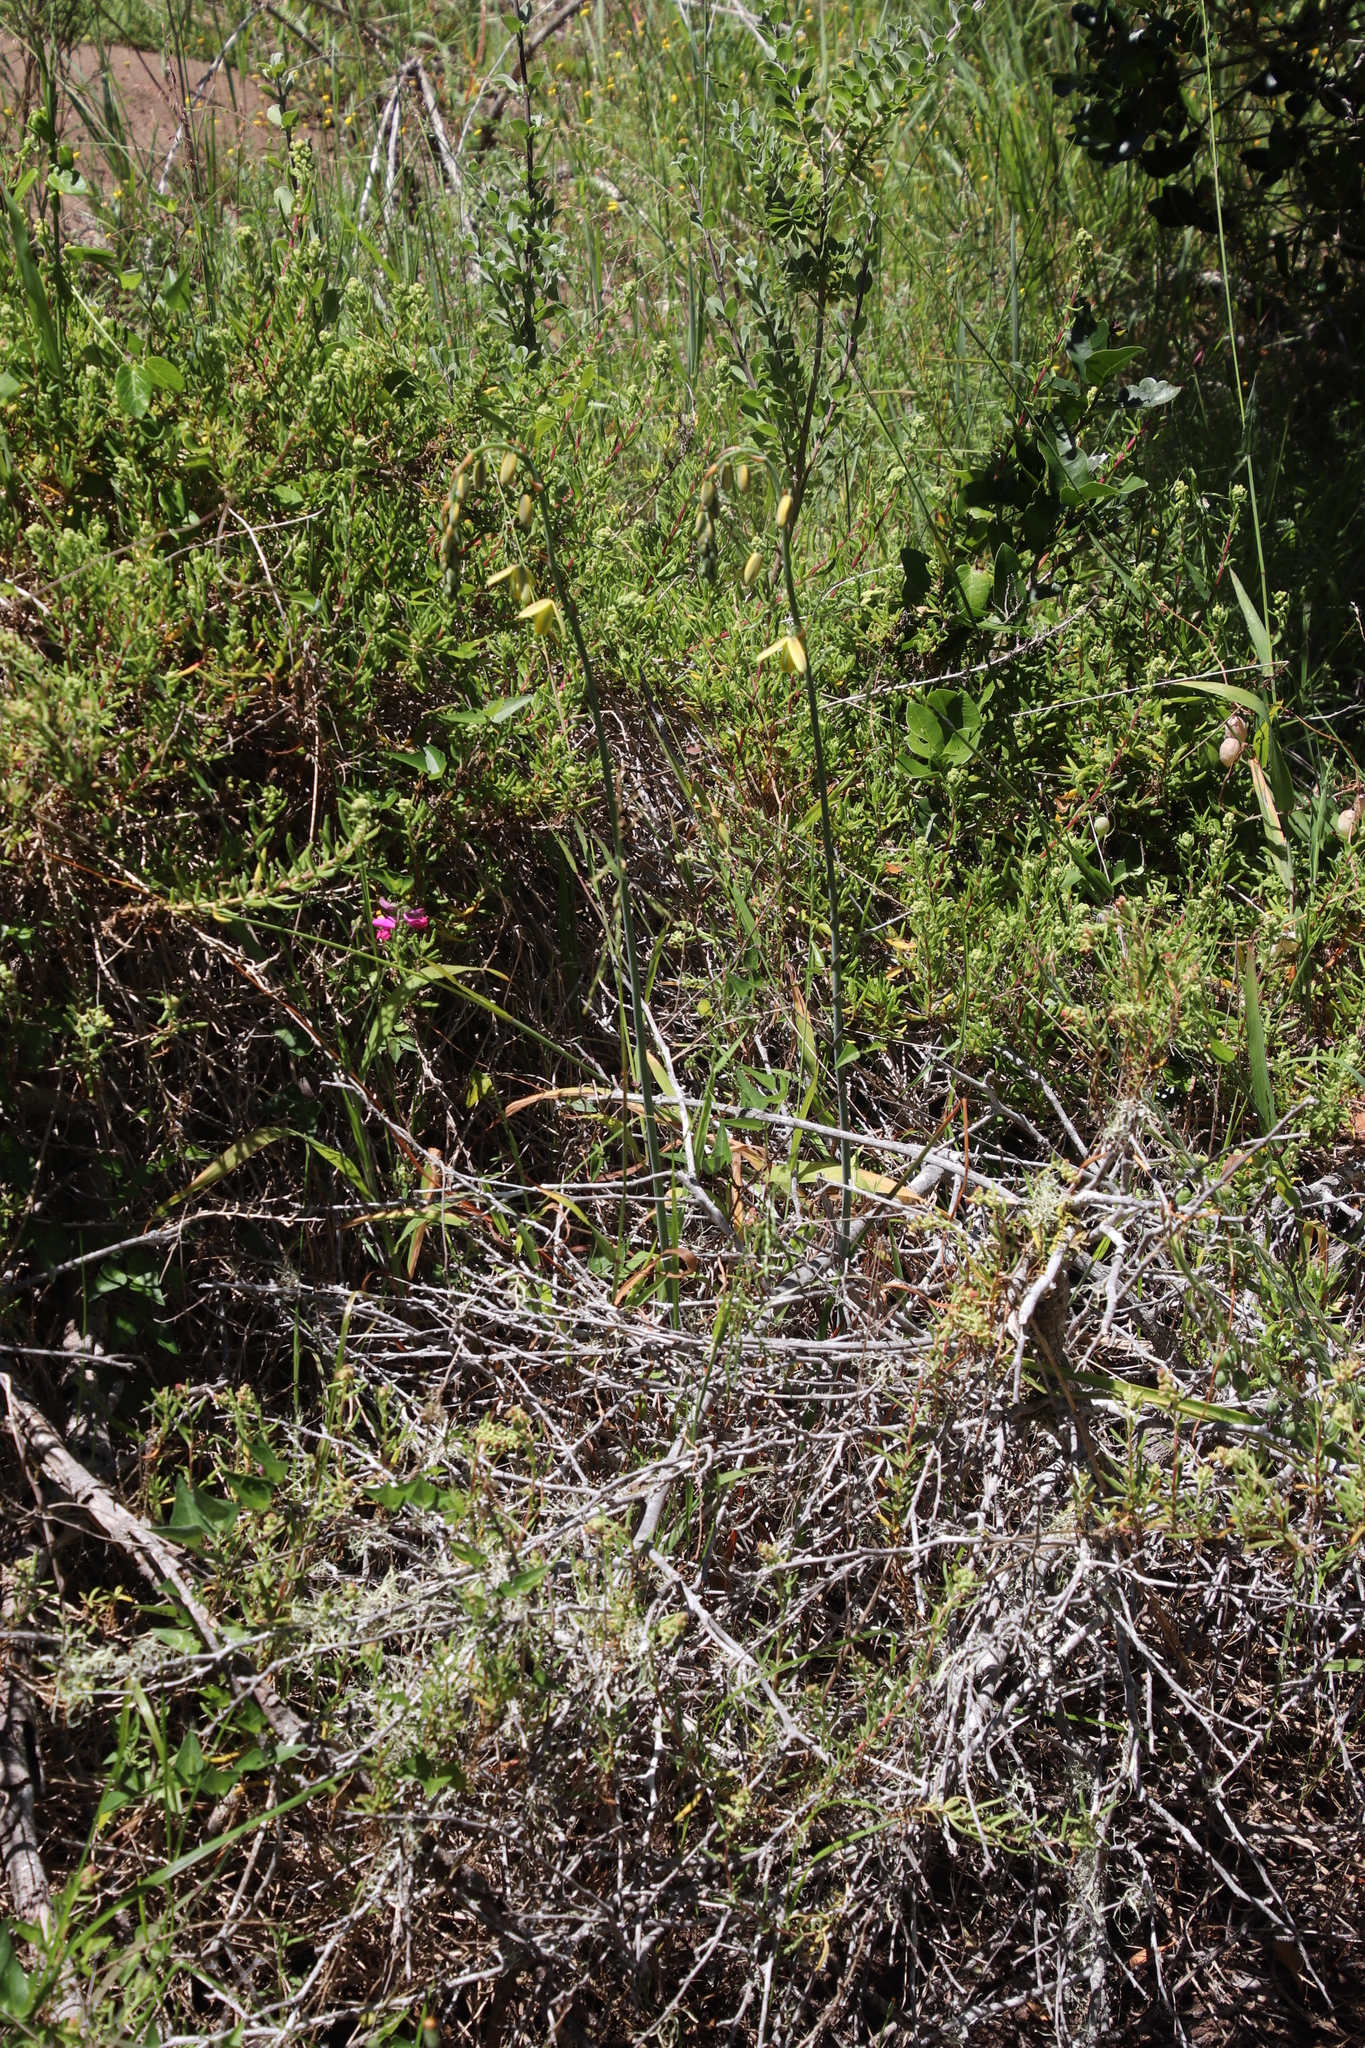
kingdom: Plantae
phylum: Tracheophyta
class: Liliopsida
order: Asparagales
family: Asparagaceae
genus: Albuca
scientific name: Albuca juncifolia
